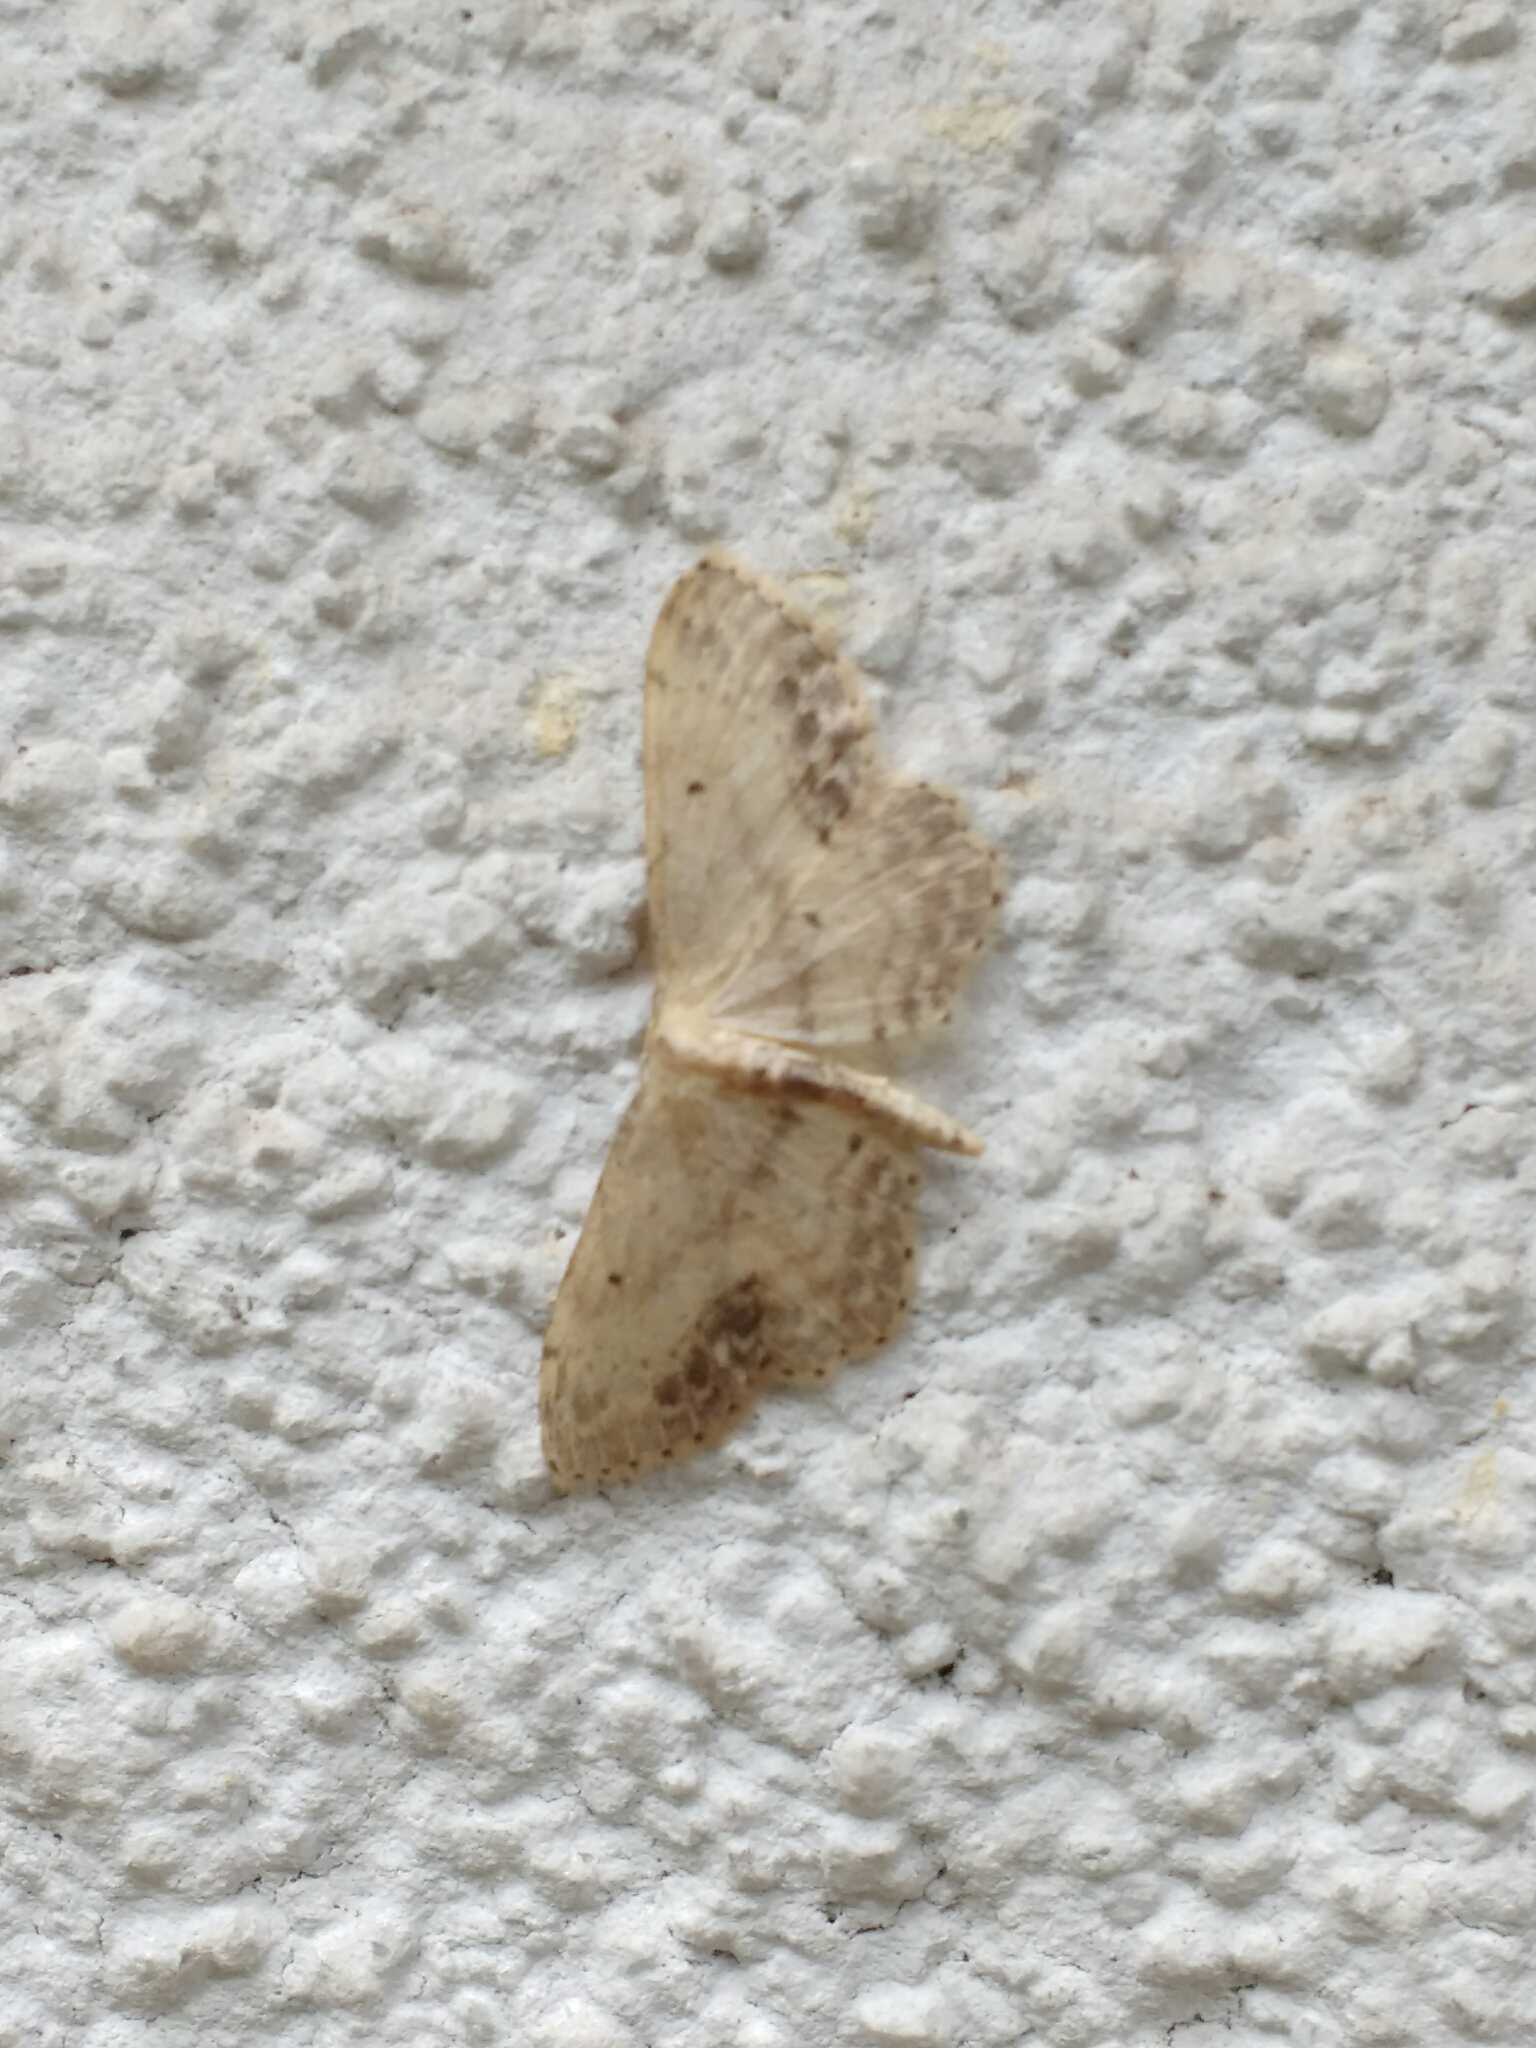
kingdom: Animalia
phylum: Arthropoda
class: Insecta
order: Lepidoptera
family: Geometridae
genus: Idaea
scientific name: Idaea dimidiata
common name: Single-dotted wave
